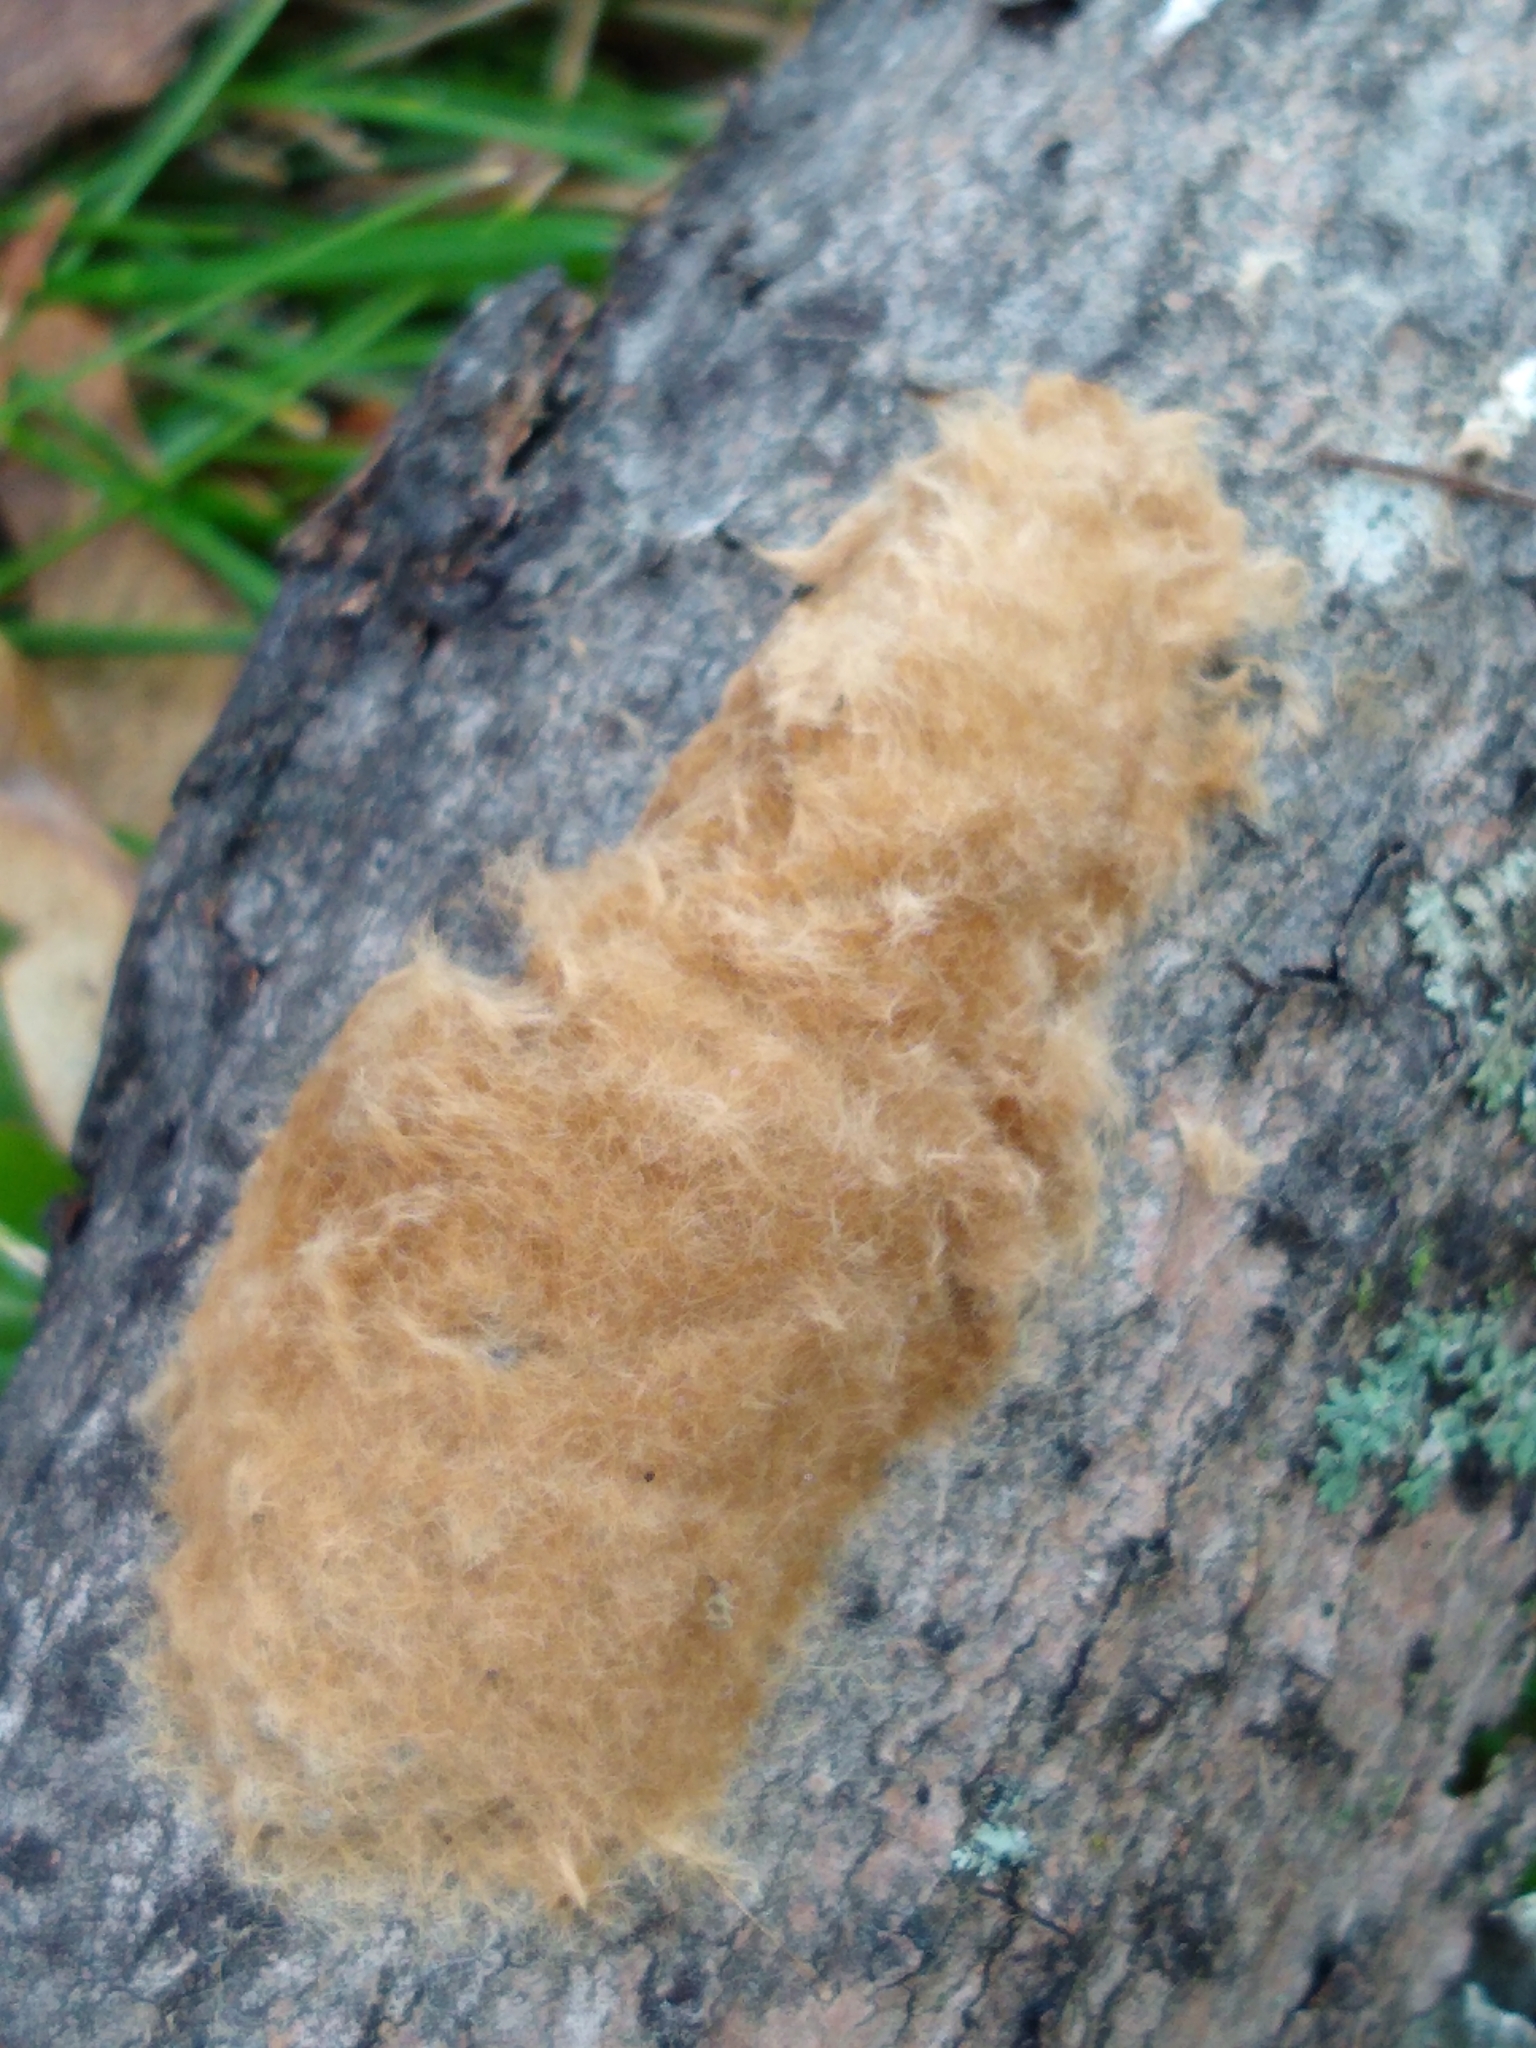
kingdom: Animalia
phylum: Arthropoda
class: Insecta
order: Lepidoptera
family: Erebidae
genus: Lymantria
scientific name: Lymantria dispar
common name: Gypsy moth
